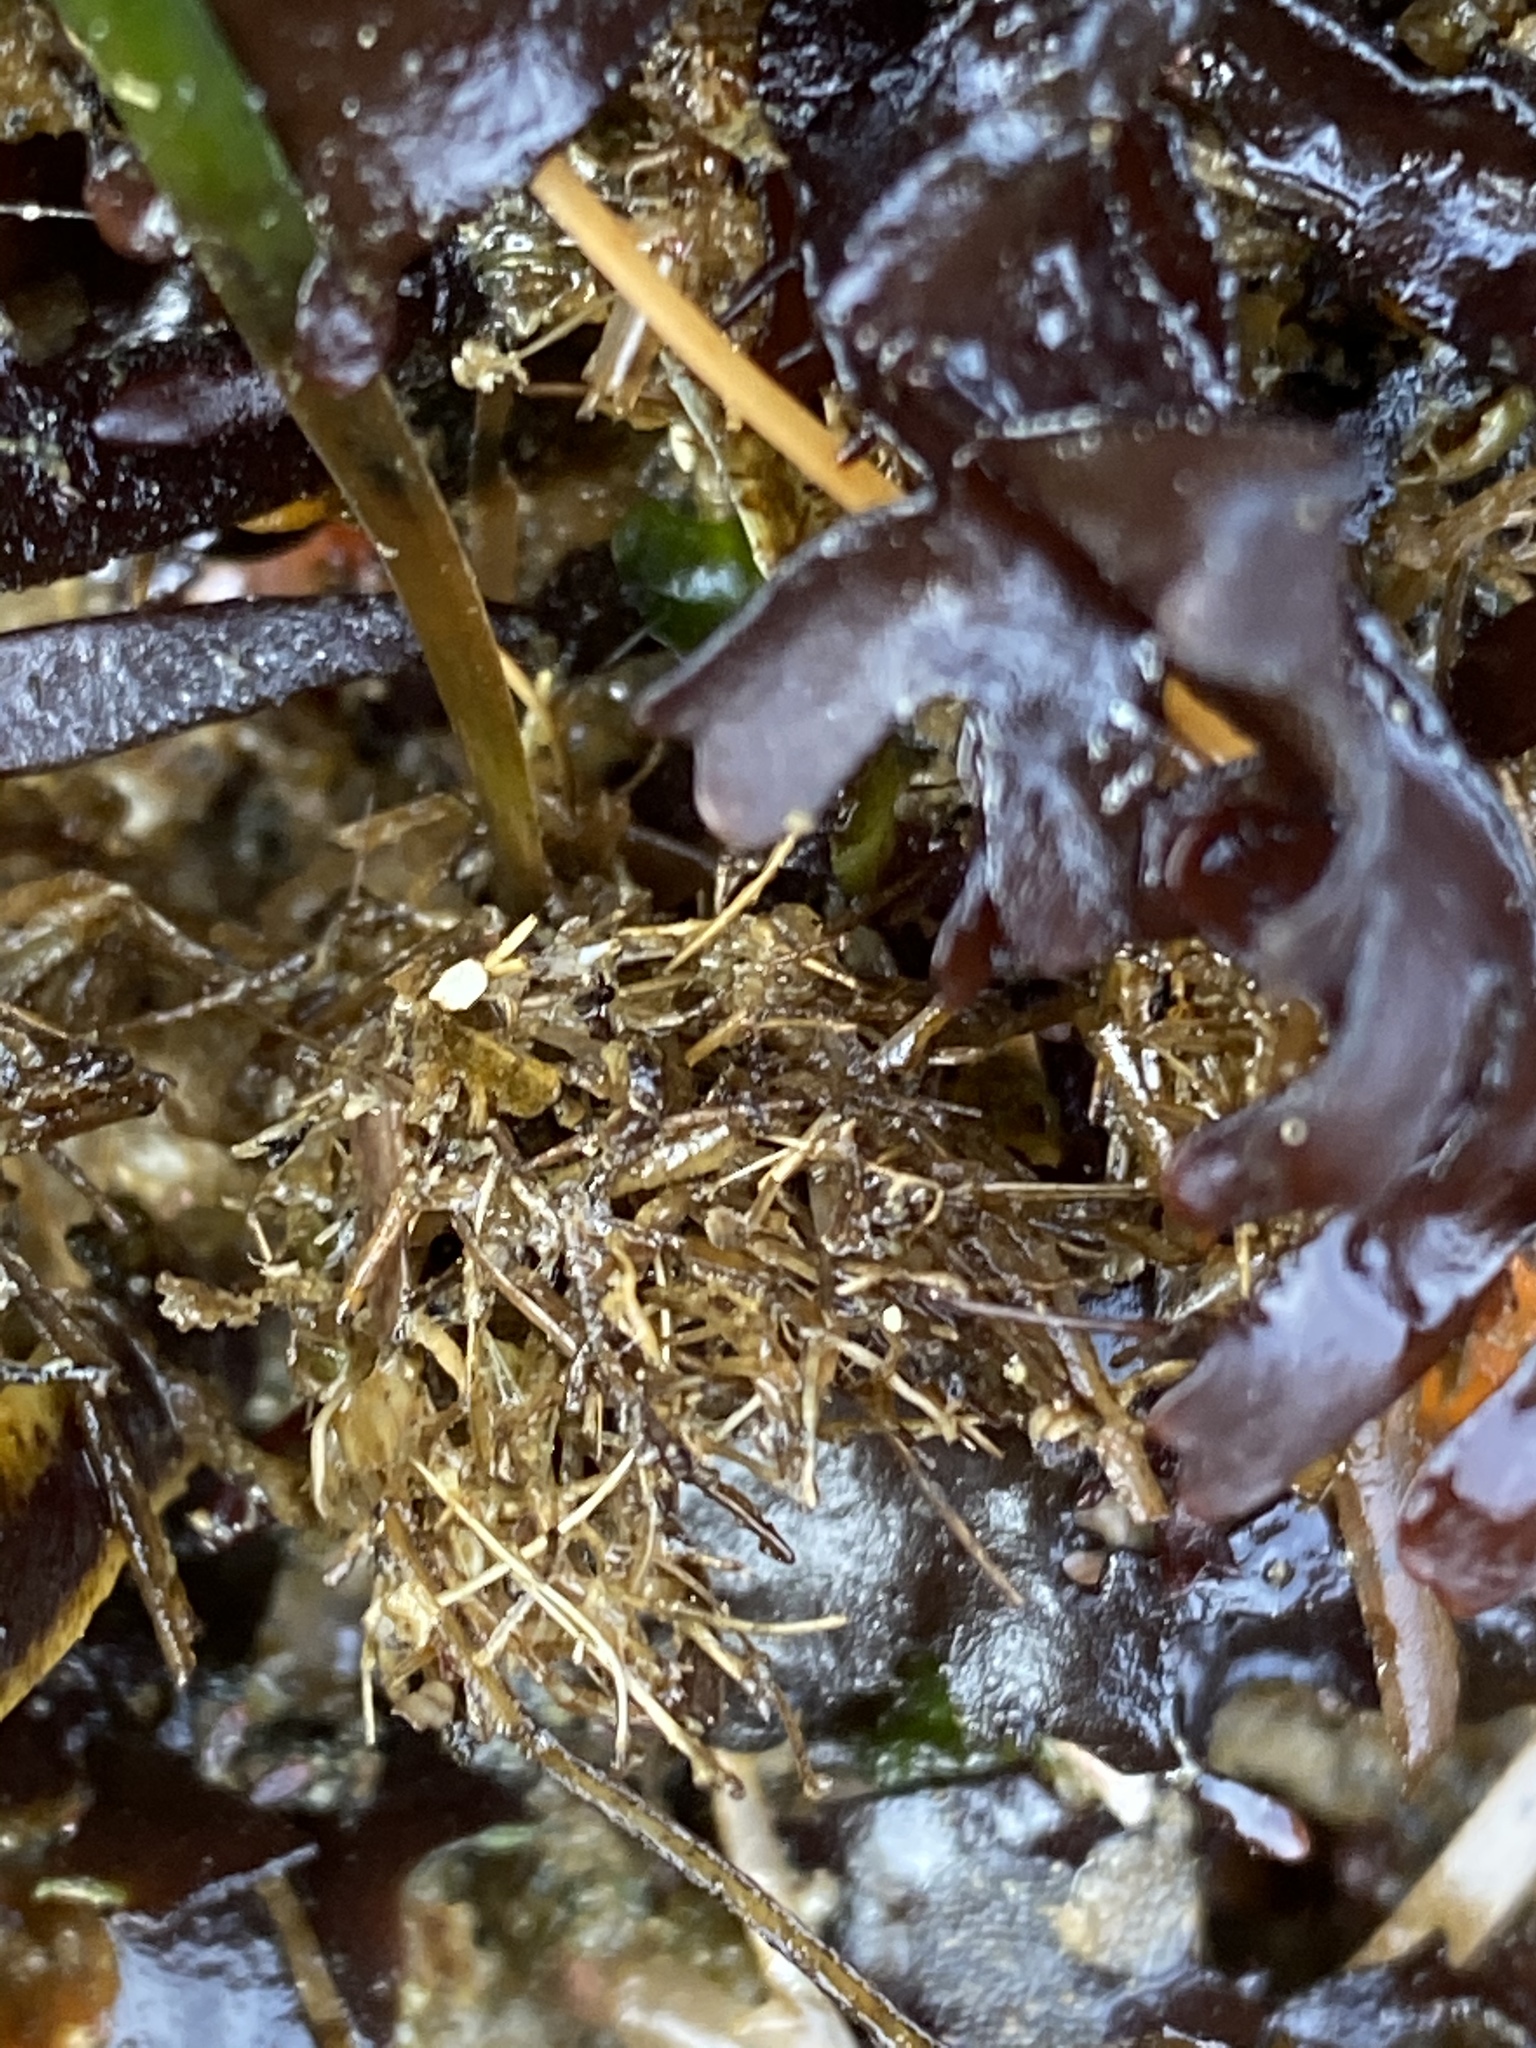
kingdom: Animalia
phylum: Annelida
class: Polychaeta
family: Terebellidae
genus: Pista
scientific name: Pista elongata
